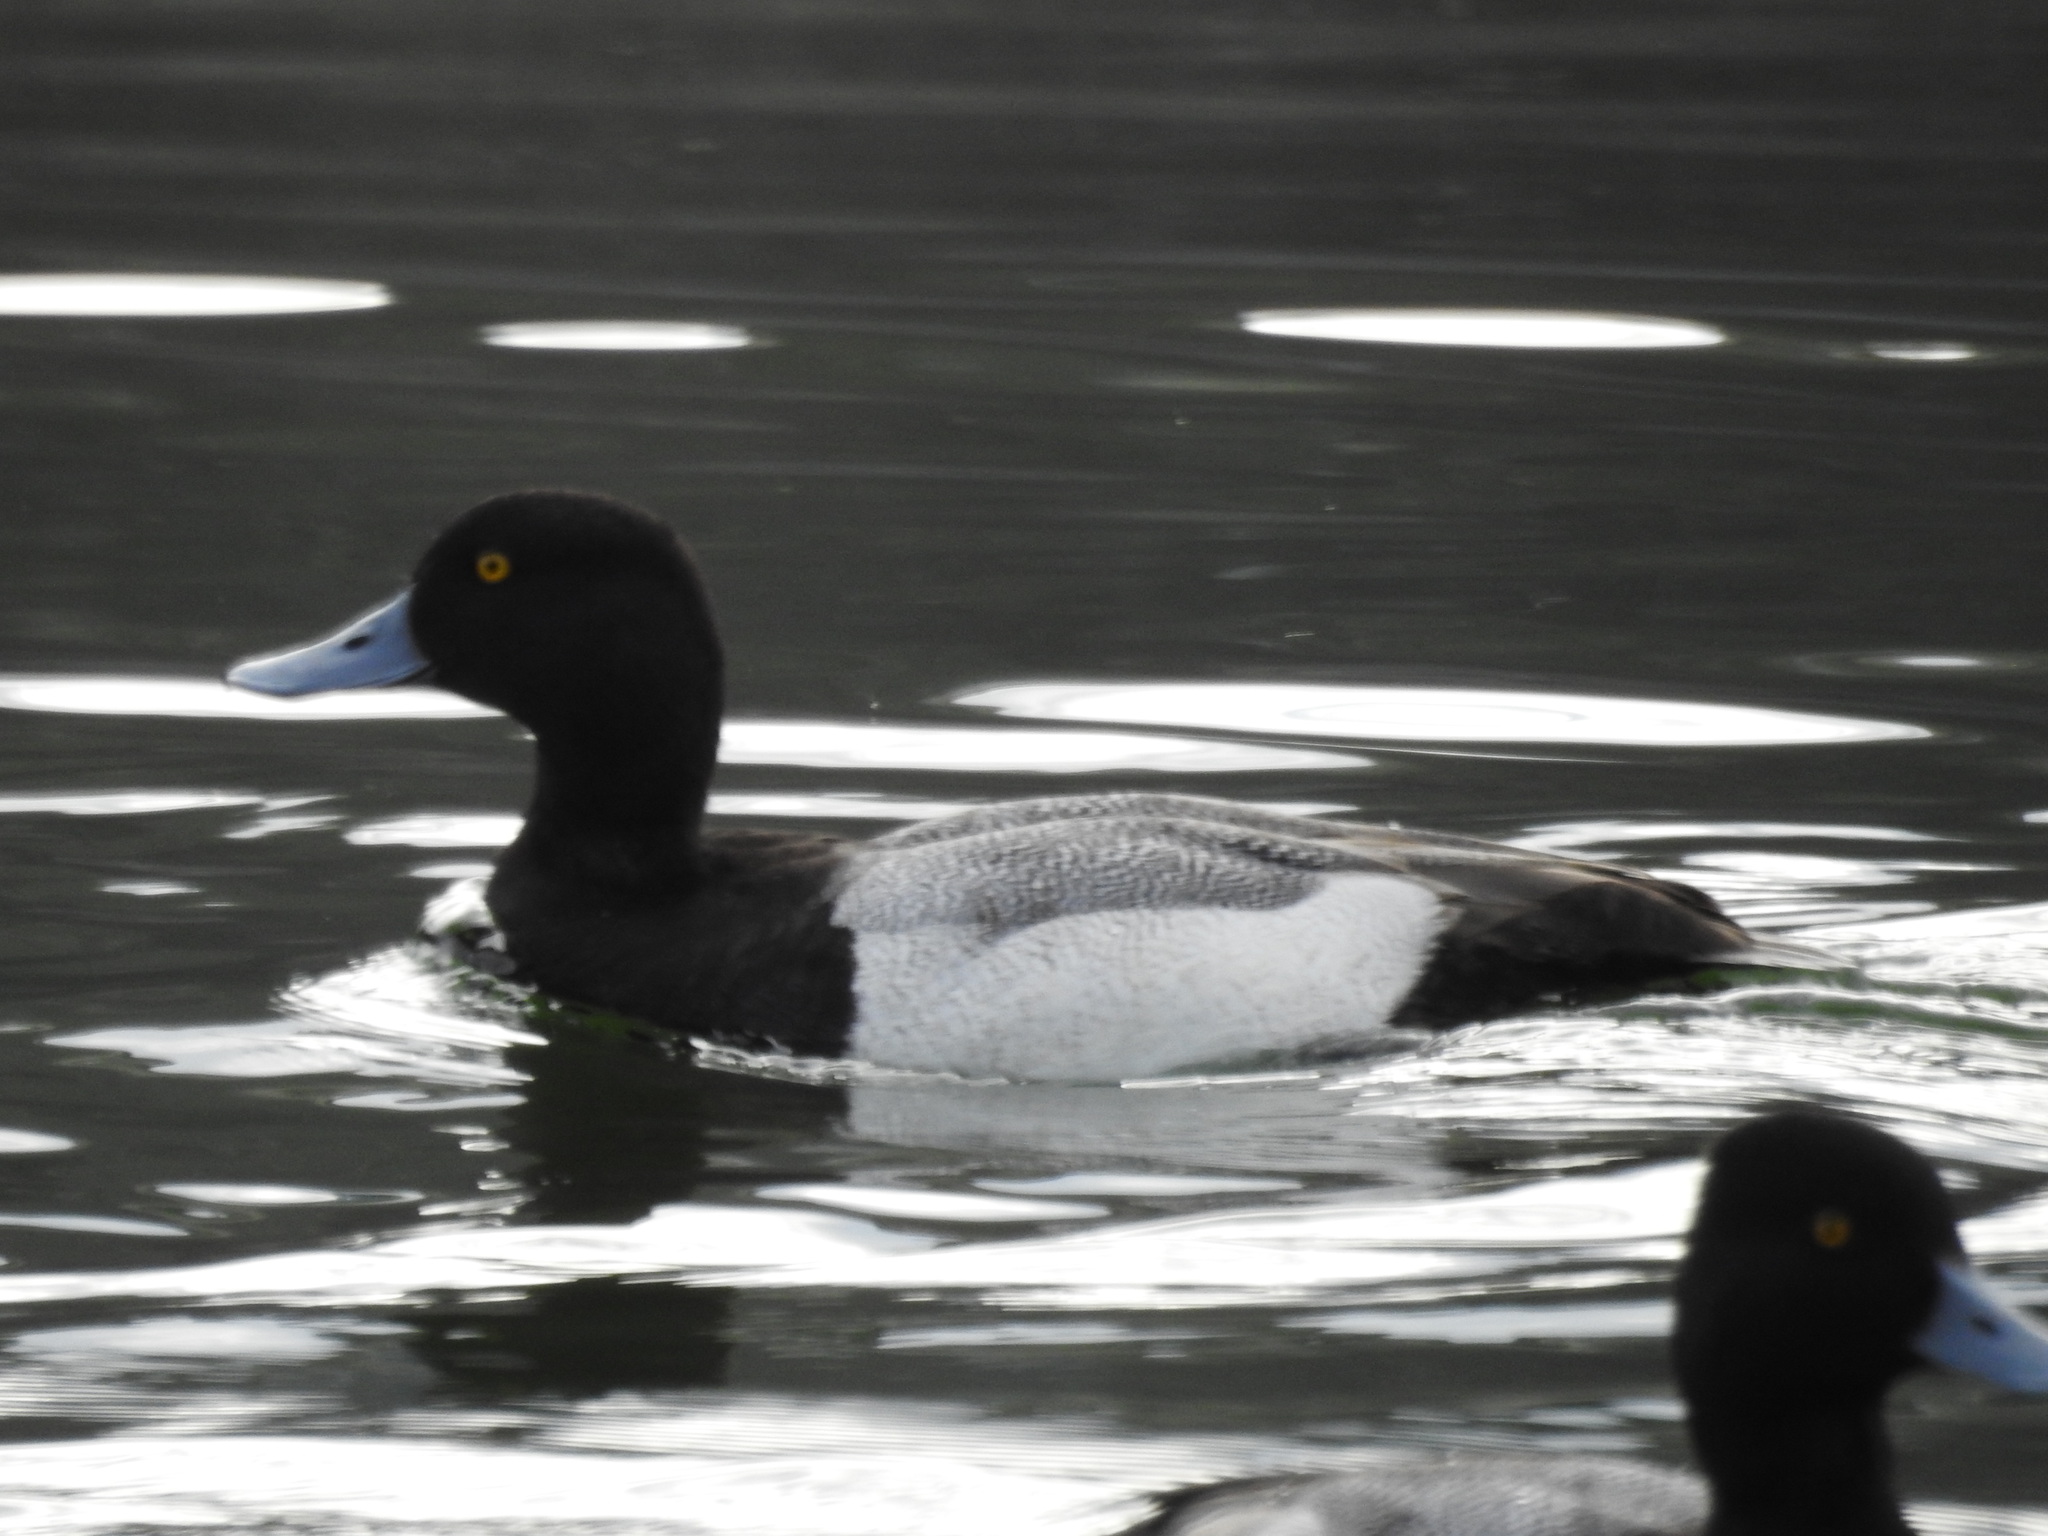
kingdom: Animalia
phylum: Chordata
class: Aves
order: Anseriformes
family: Anatidae
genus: Aythya
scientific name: Aythya affinis
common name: Lesser scaup
